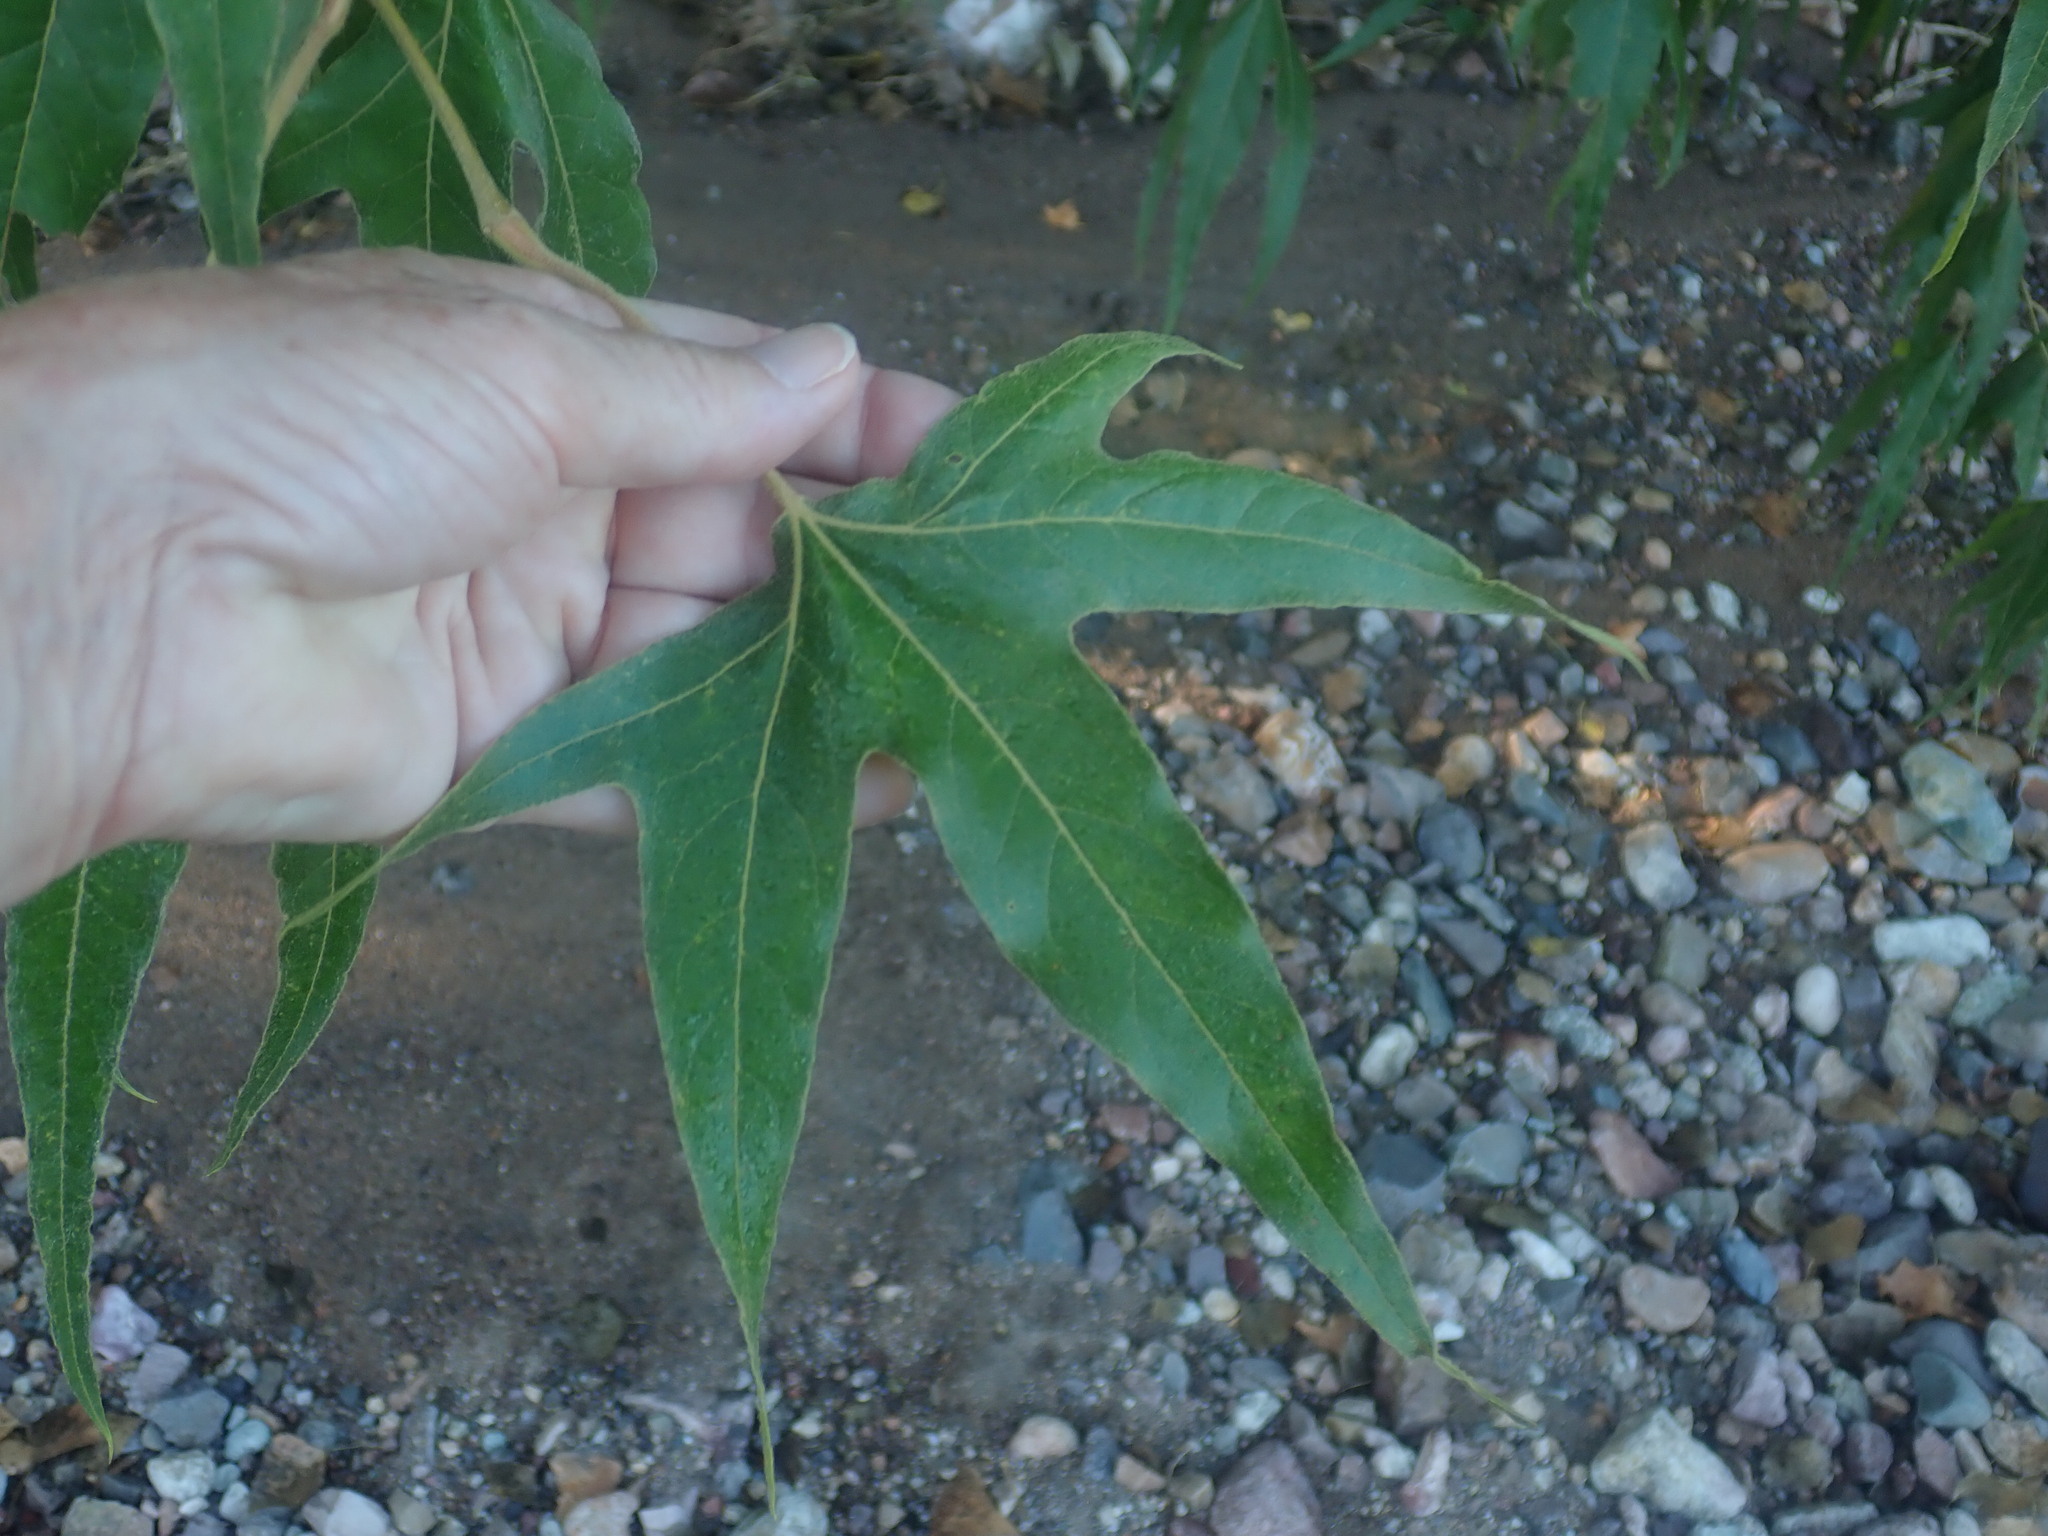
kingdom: Plantae
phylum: Tracheophyta
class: Magnoliopsida
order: Proteales
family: Platanaceae
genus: Platanus
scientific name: Platanus wrightii
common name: Arizona sycamore
